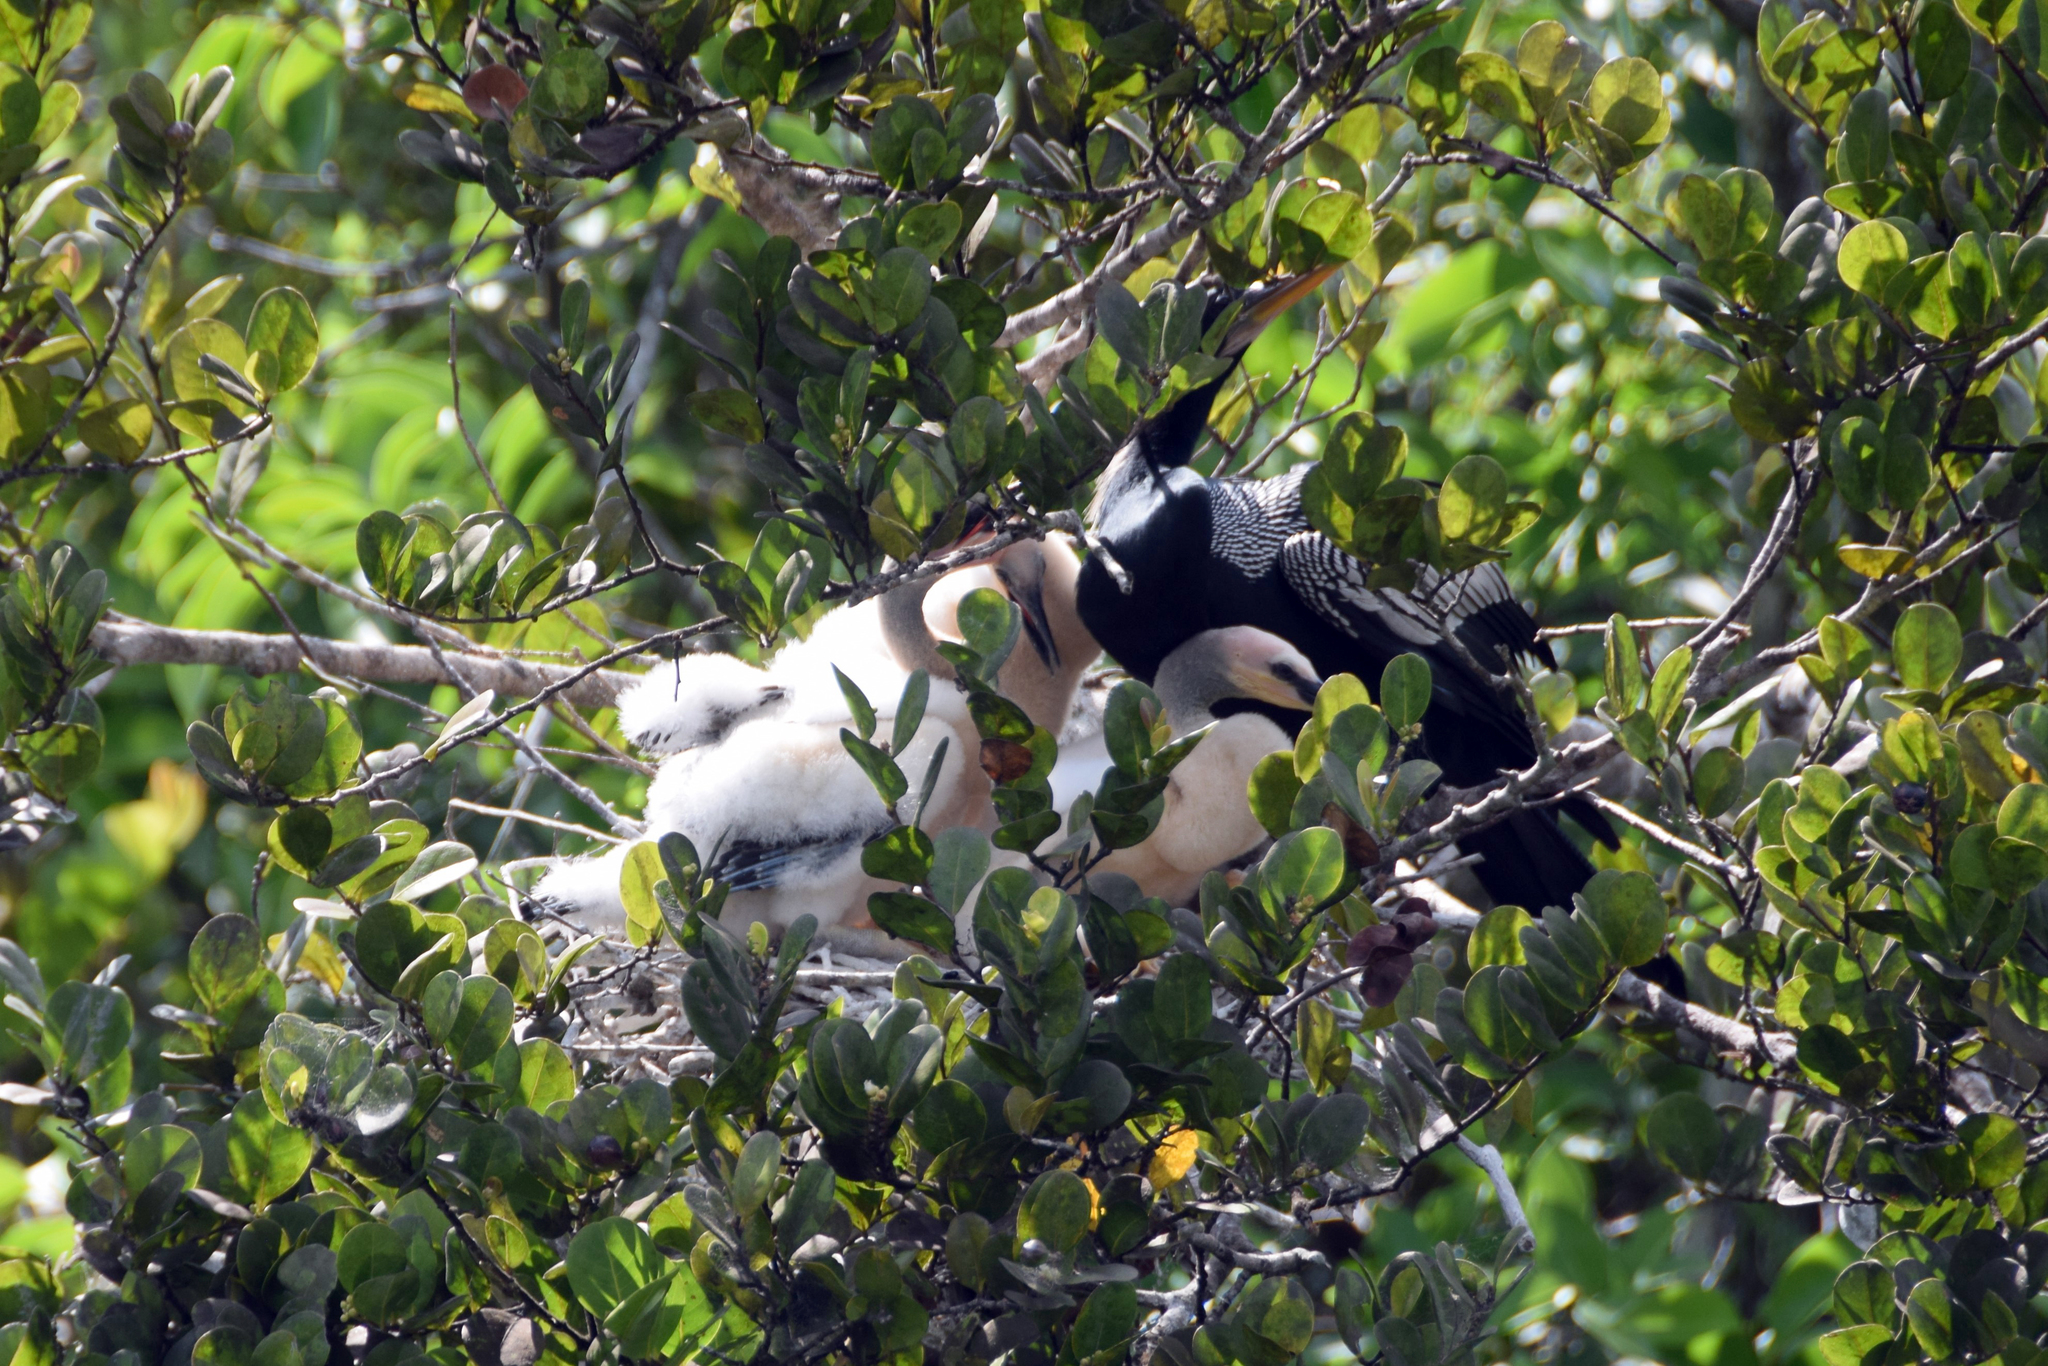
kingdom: Animalia
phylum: Chordata
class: Aves
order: Suliformes
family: Anhingidae
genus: Anhinga
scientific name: Anhinga anhinga
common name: Anhinga
